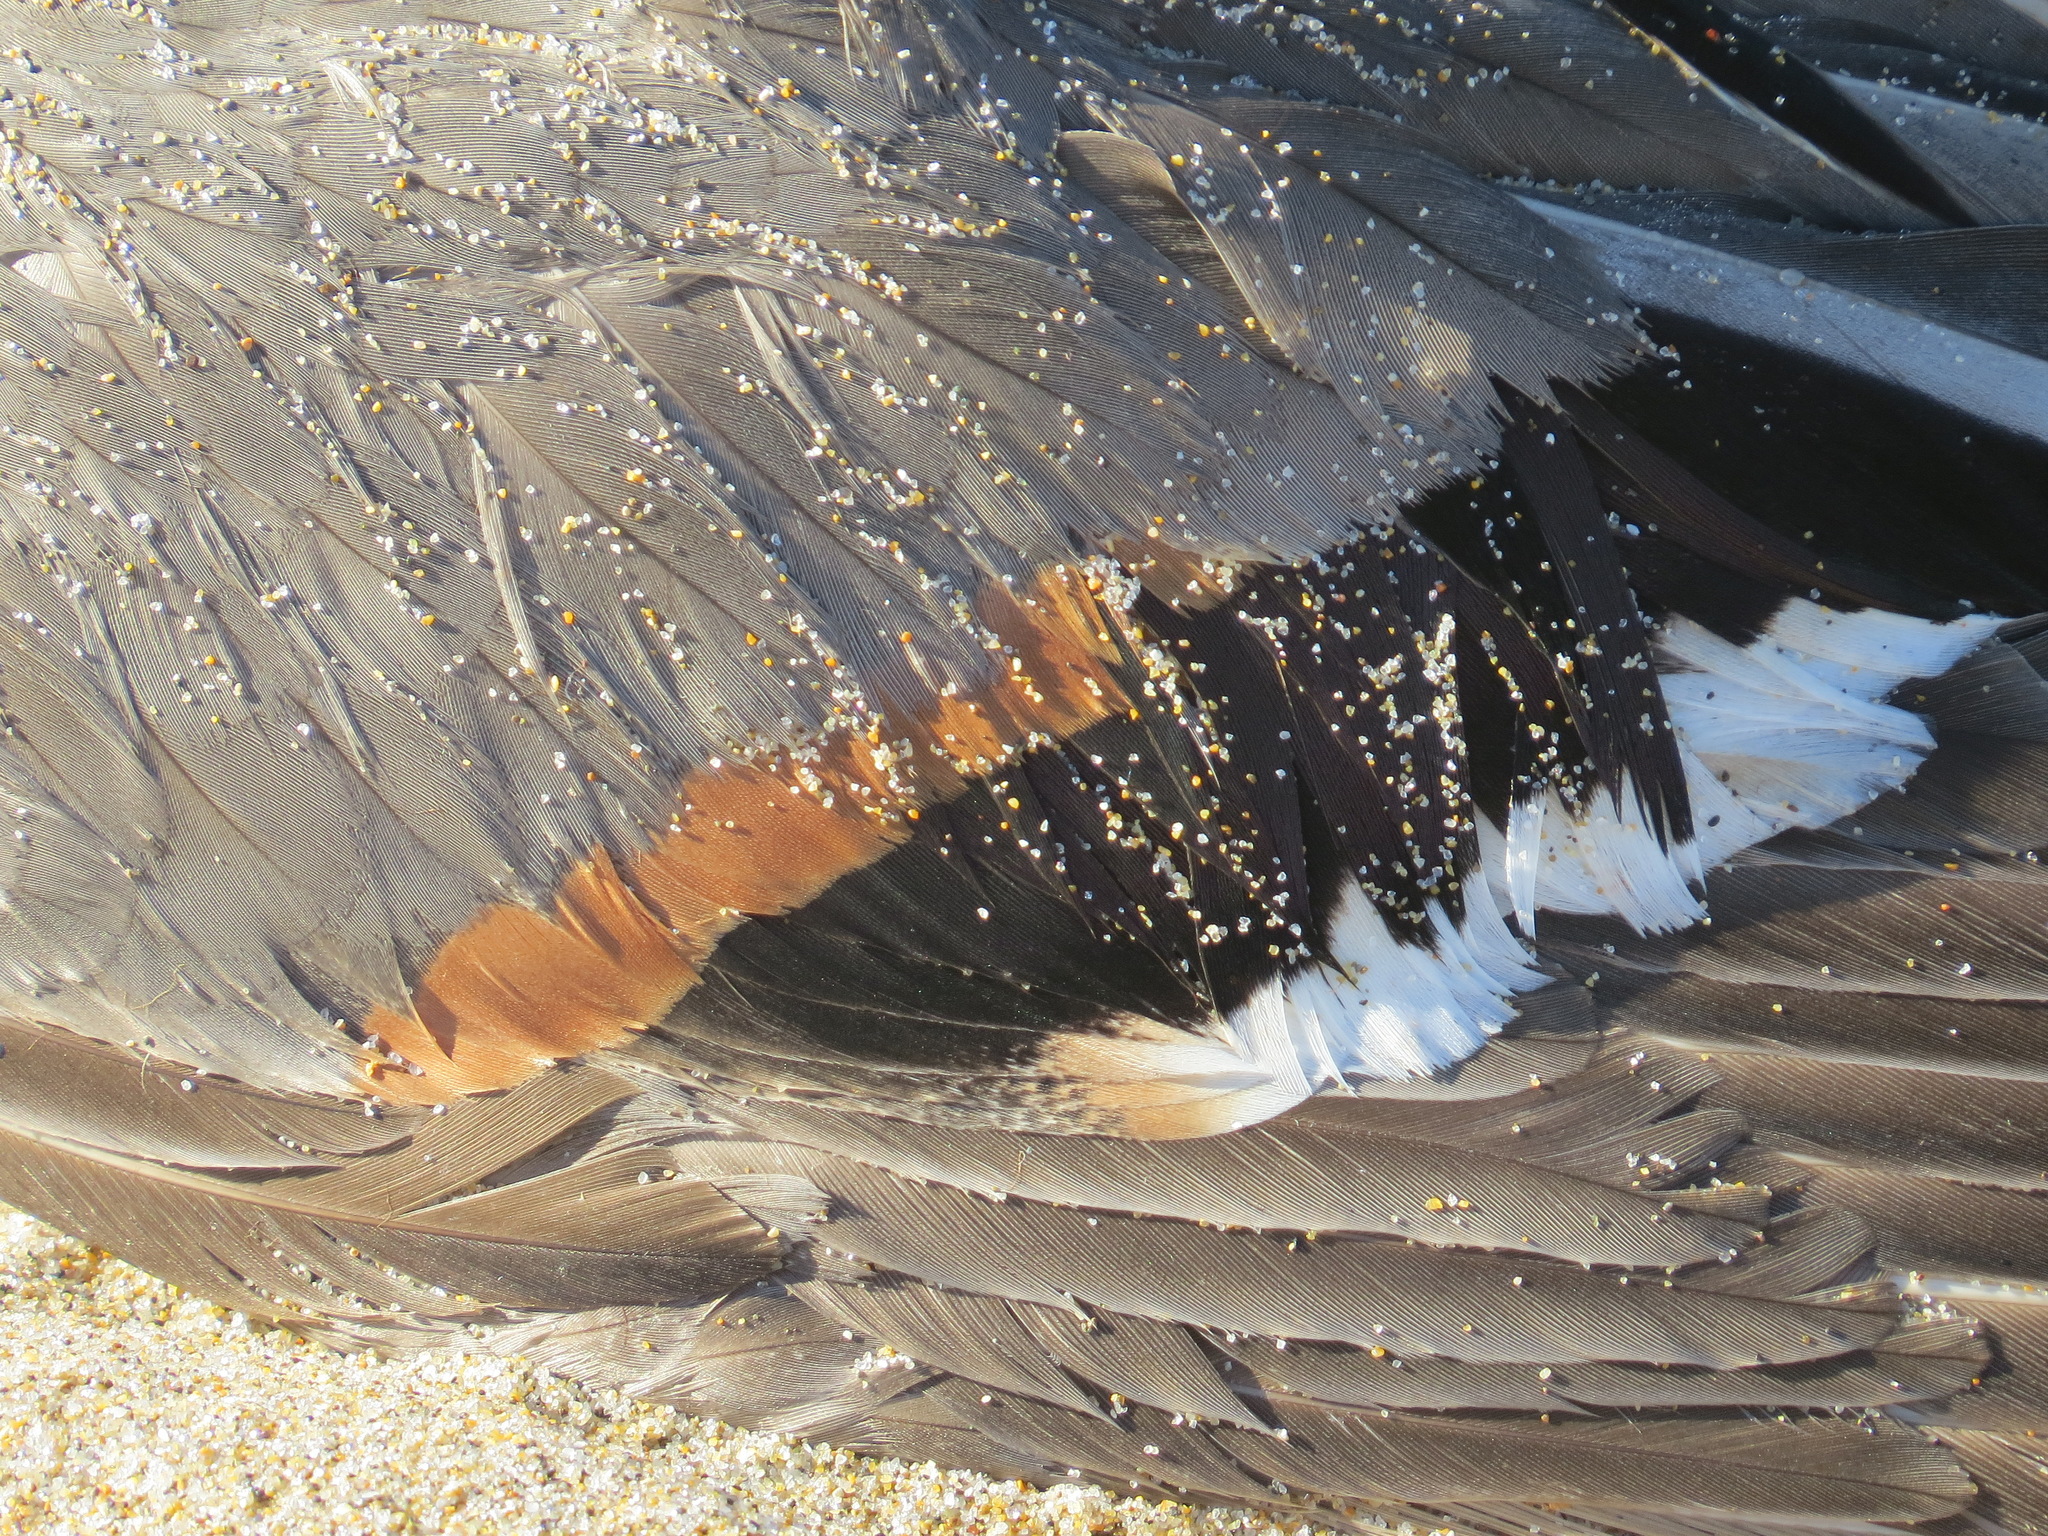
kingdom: Animalia
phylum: Chordata
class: Aves
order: Anseriformes
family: Anatidae
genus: Anas
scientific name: Anas acuta
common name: Northern pintail
